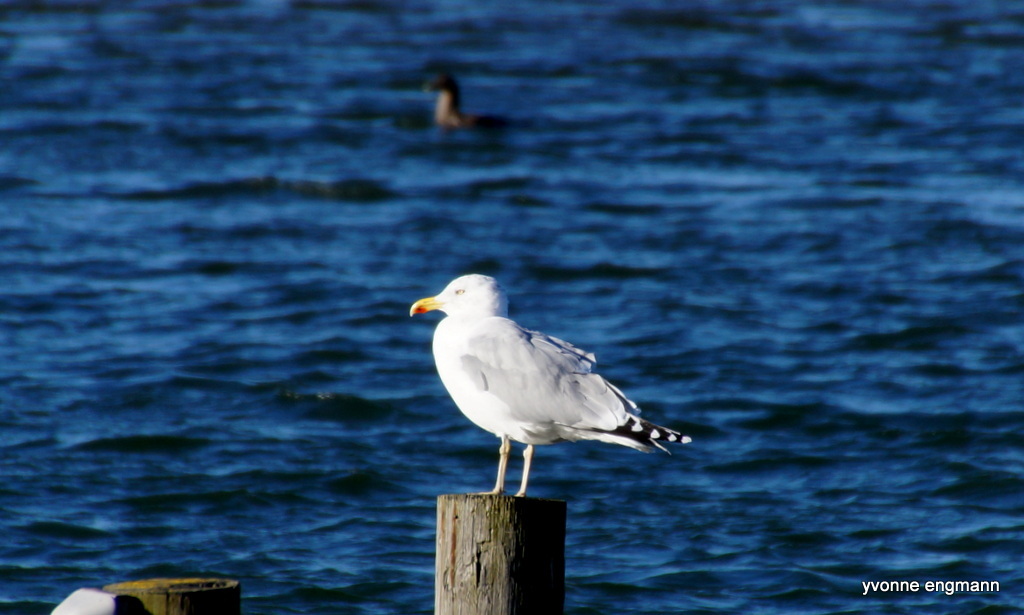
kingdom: Animalia
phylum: Chordata
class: Aves
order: Charadriiformes
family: Laridae
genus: Larus
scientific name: Larus argentatus
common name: Herring gull
